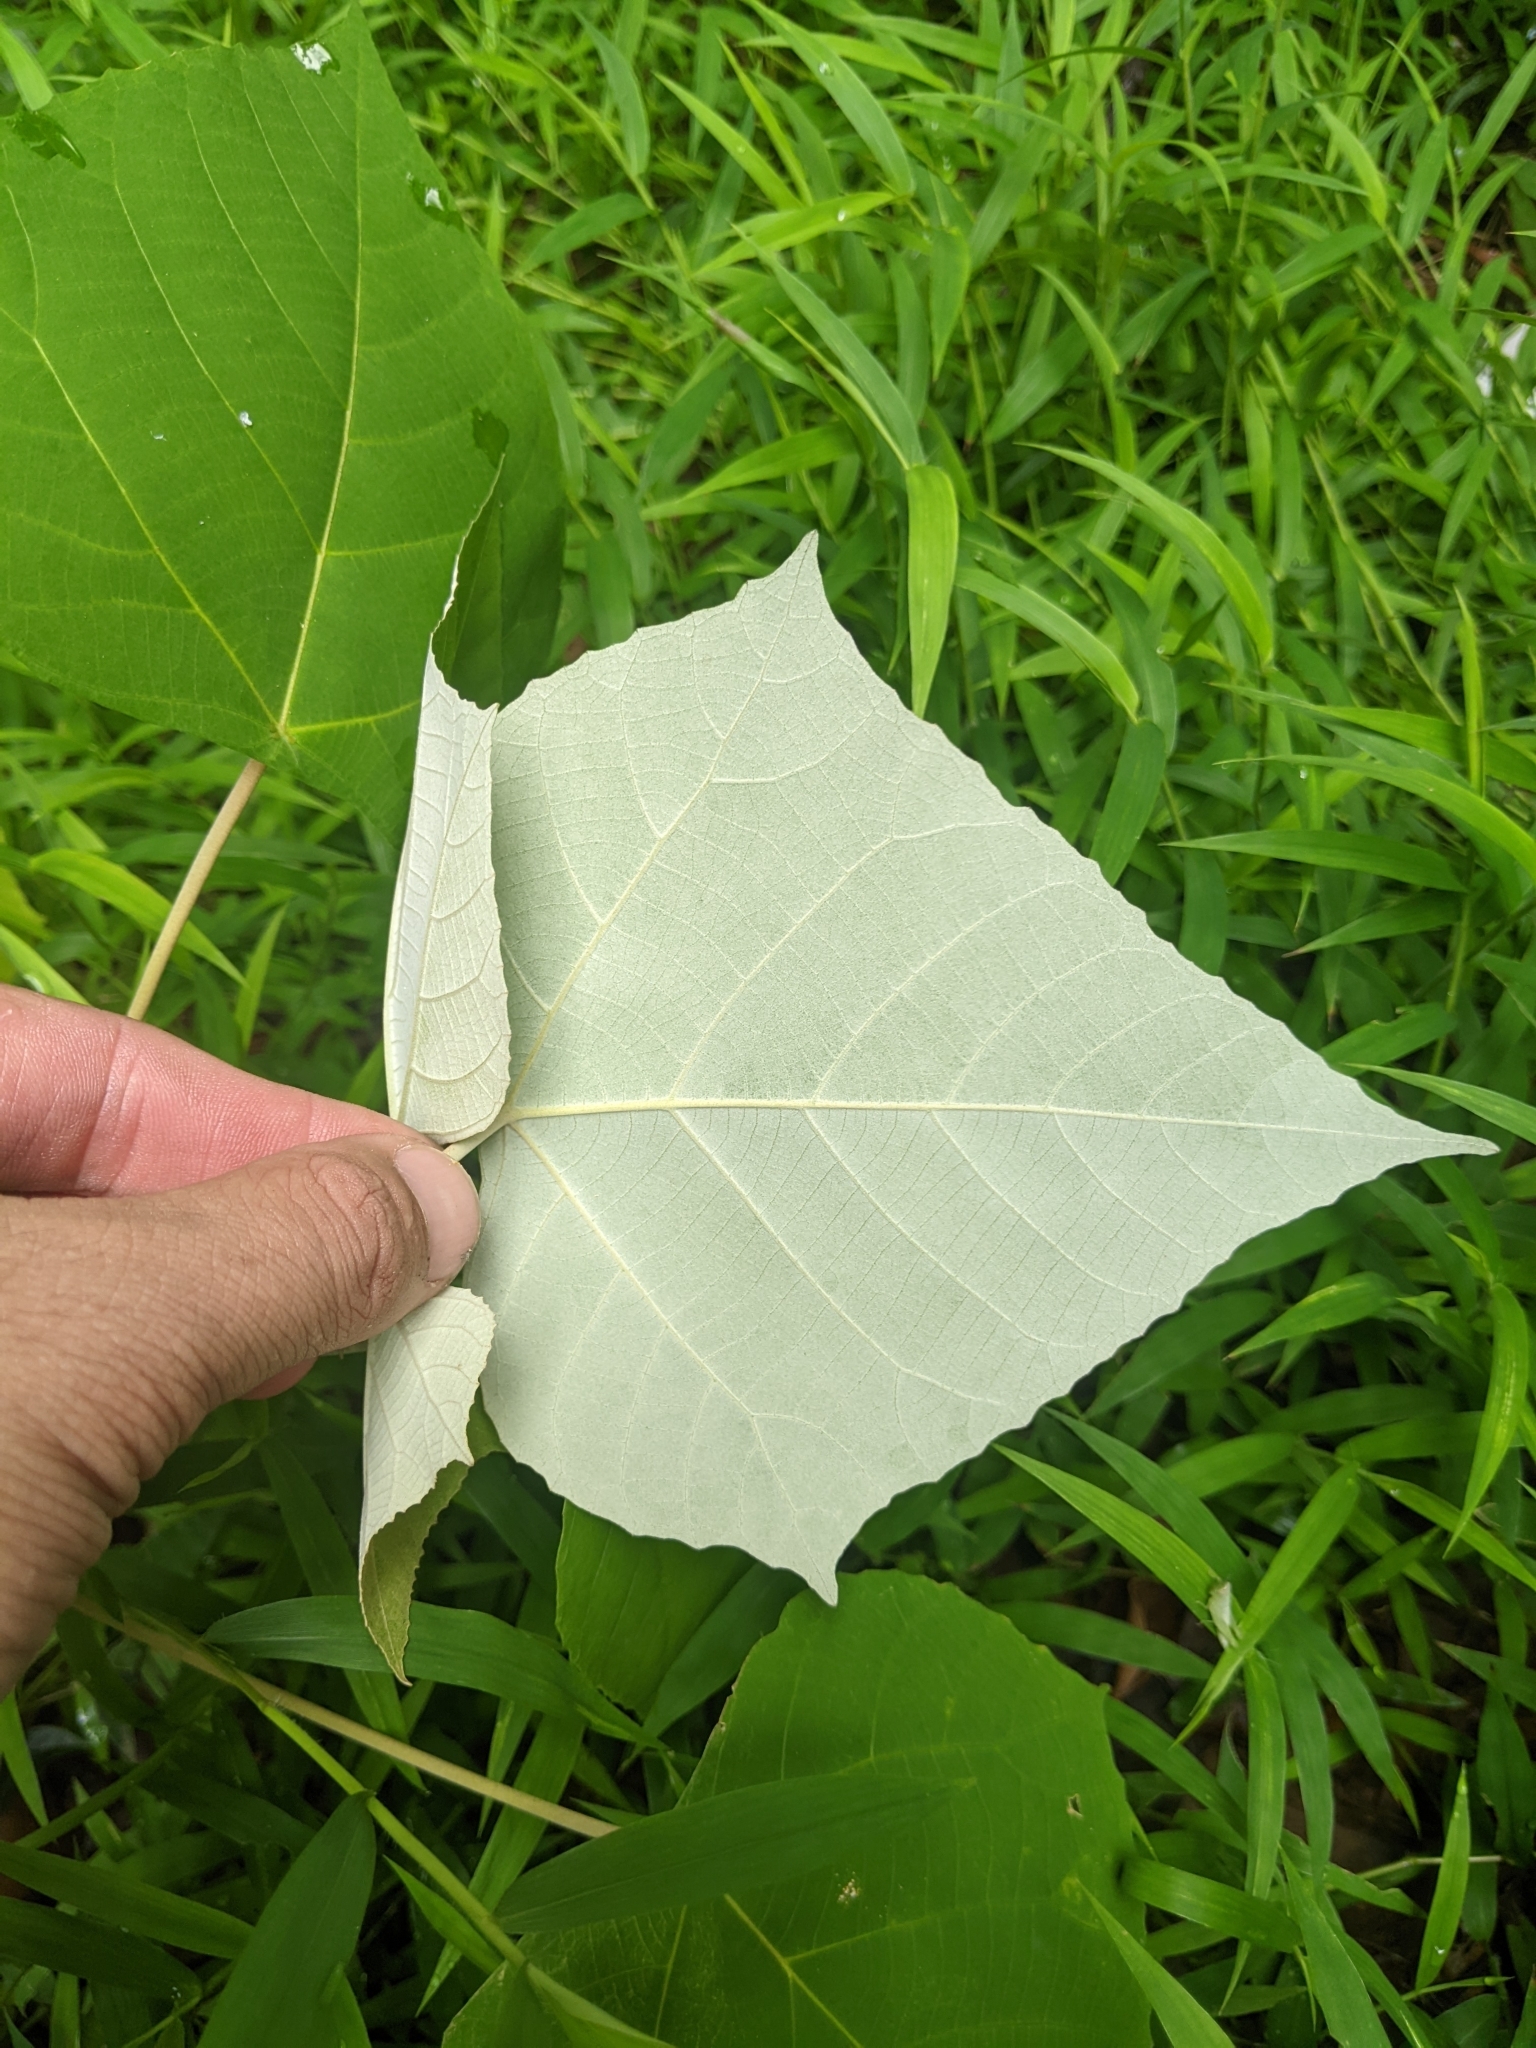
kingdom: Plantae
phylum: Tracheophyta
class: Magnoliopsida
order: Malpighiales
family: Euphorbiaceae
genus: Mallotus
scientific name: Mallotus paniculatus
